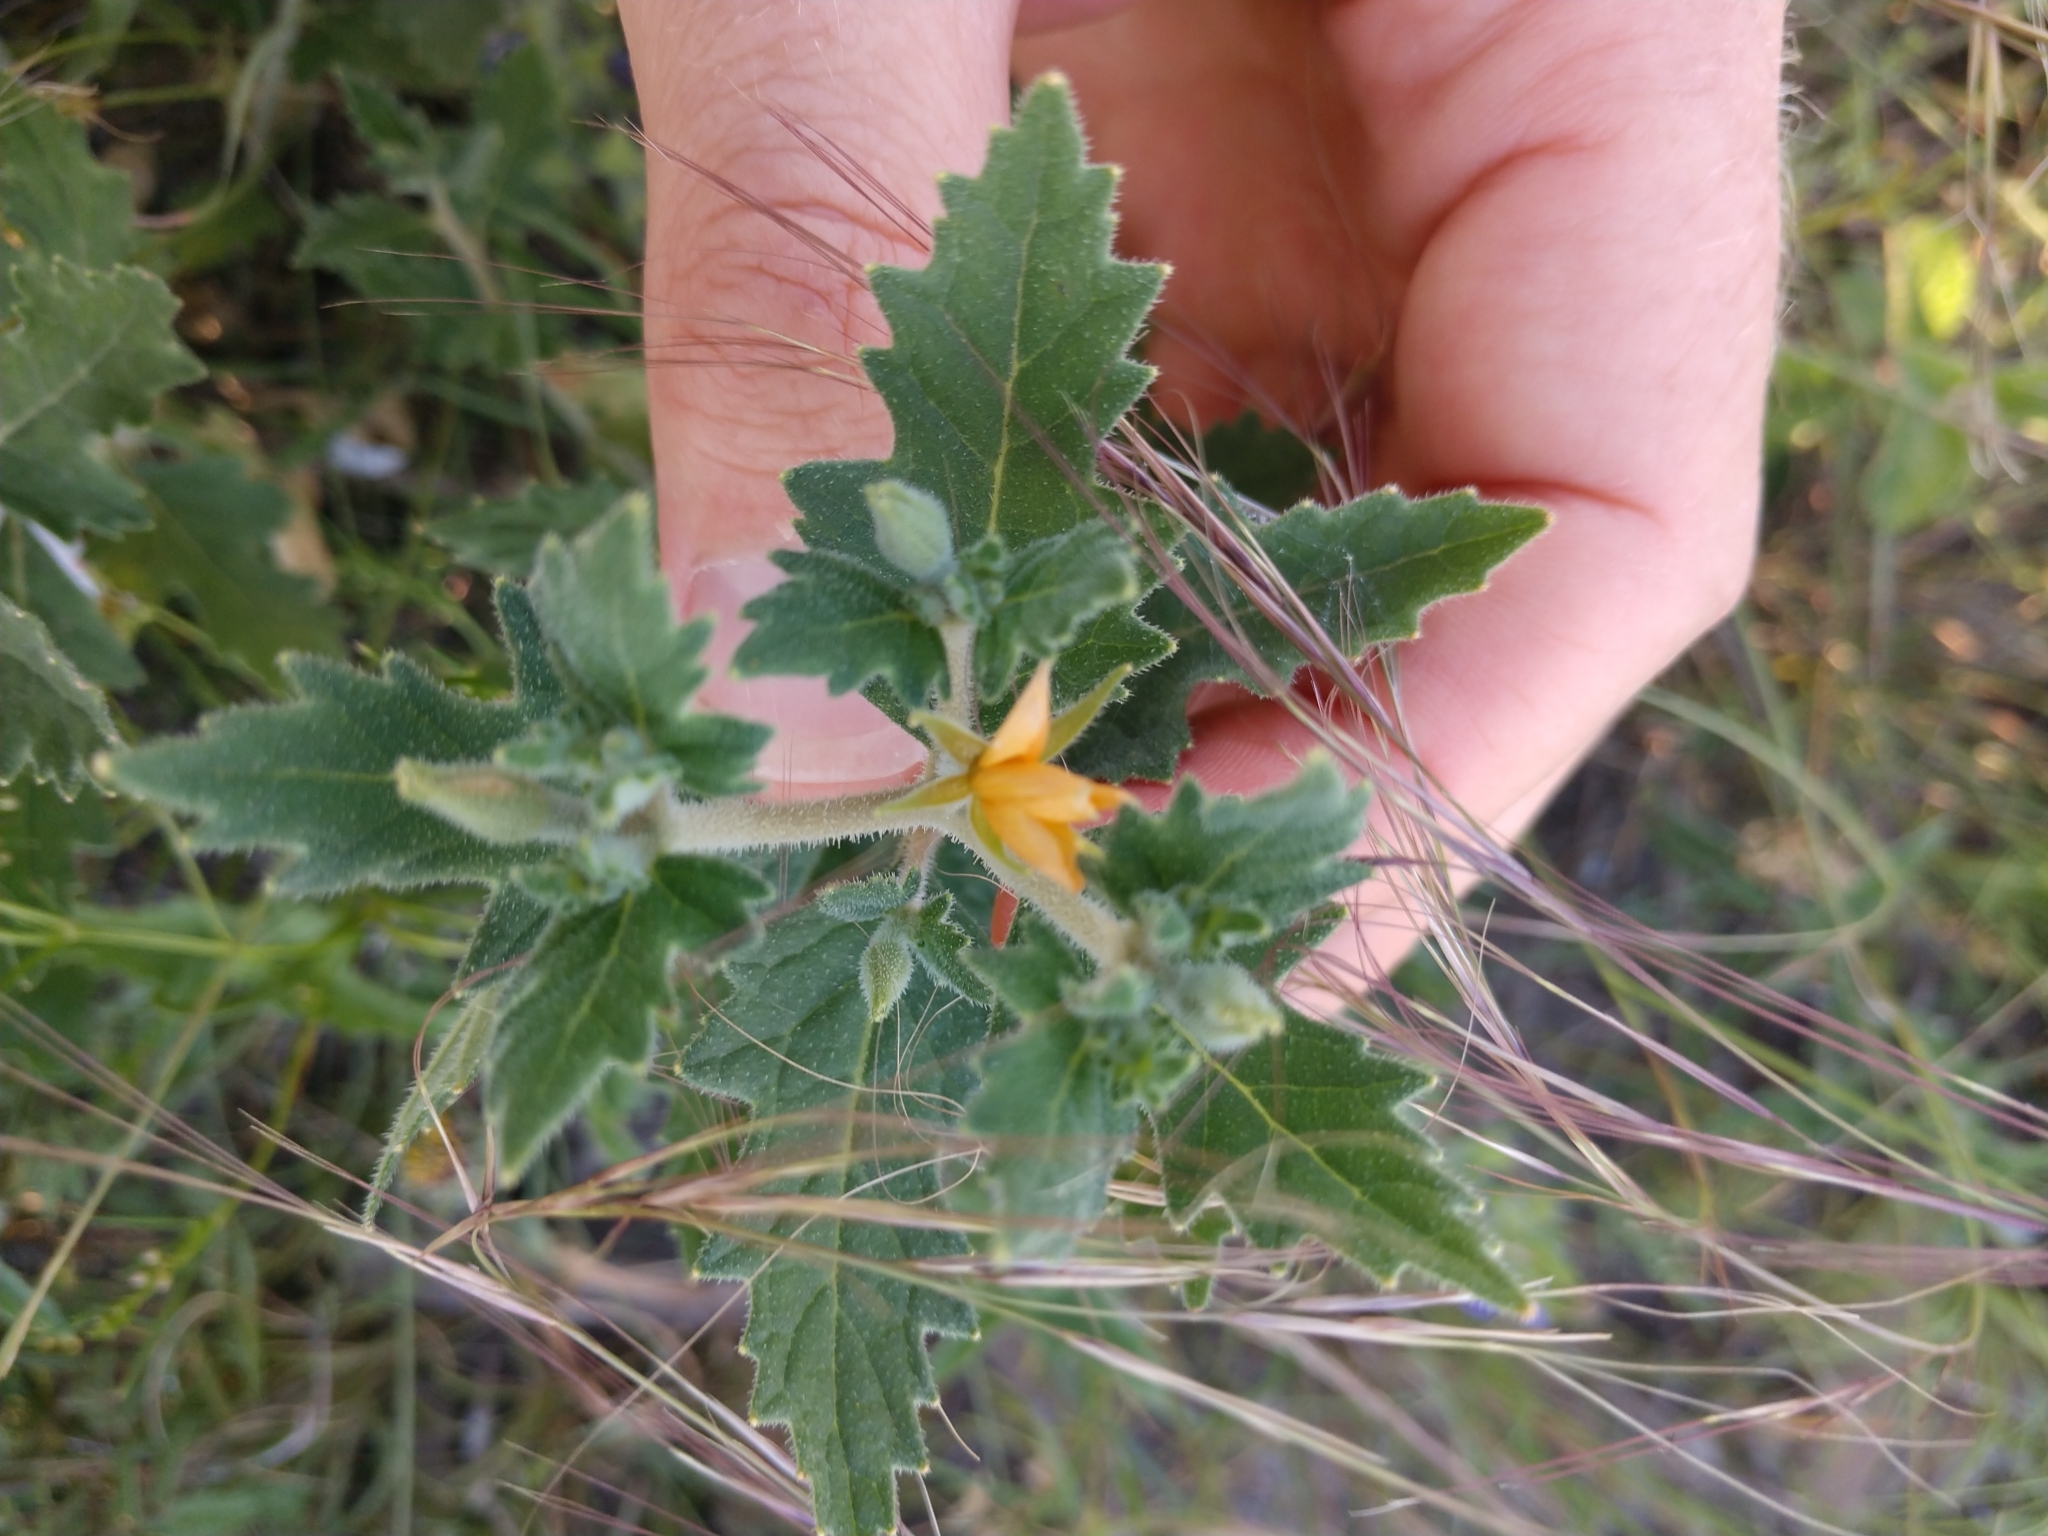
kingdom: Plantae
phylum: Tracheophyta
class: Magnoliopsida
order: Cornales
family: Loasaceae
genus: Mentzelia
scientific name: Mentzelia oligosperma
